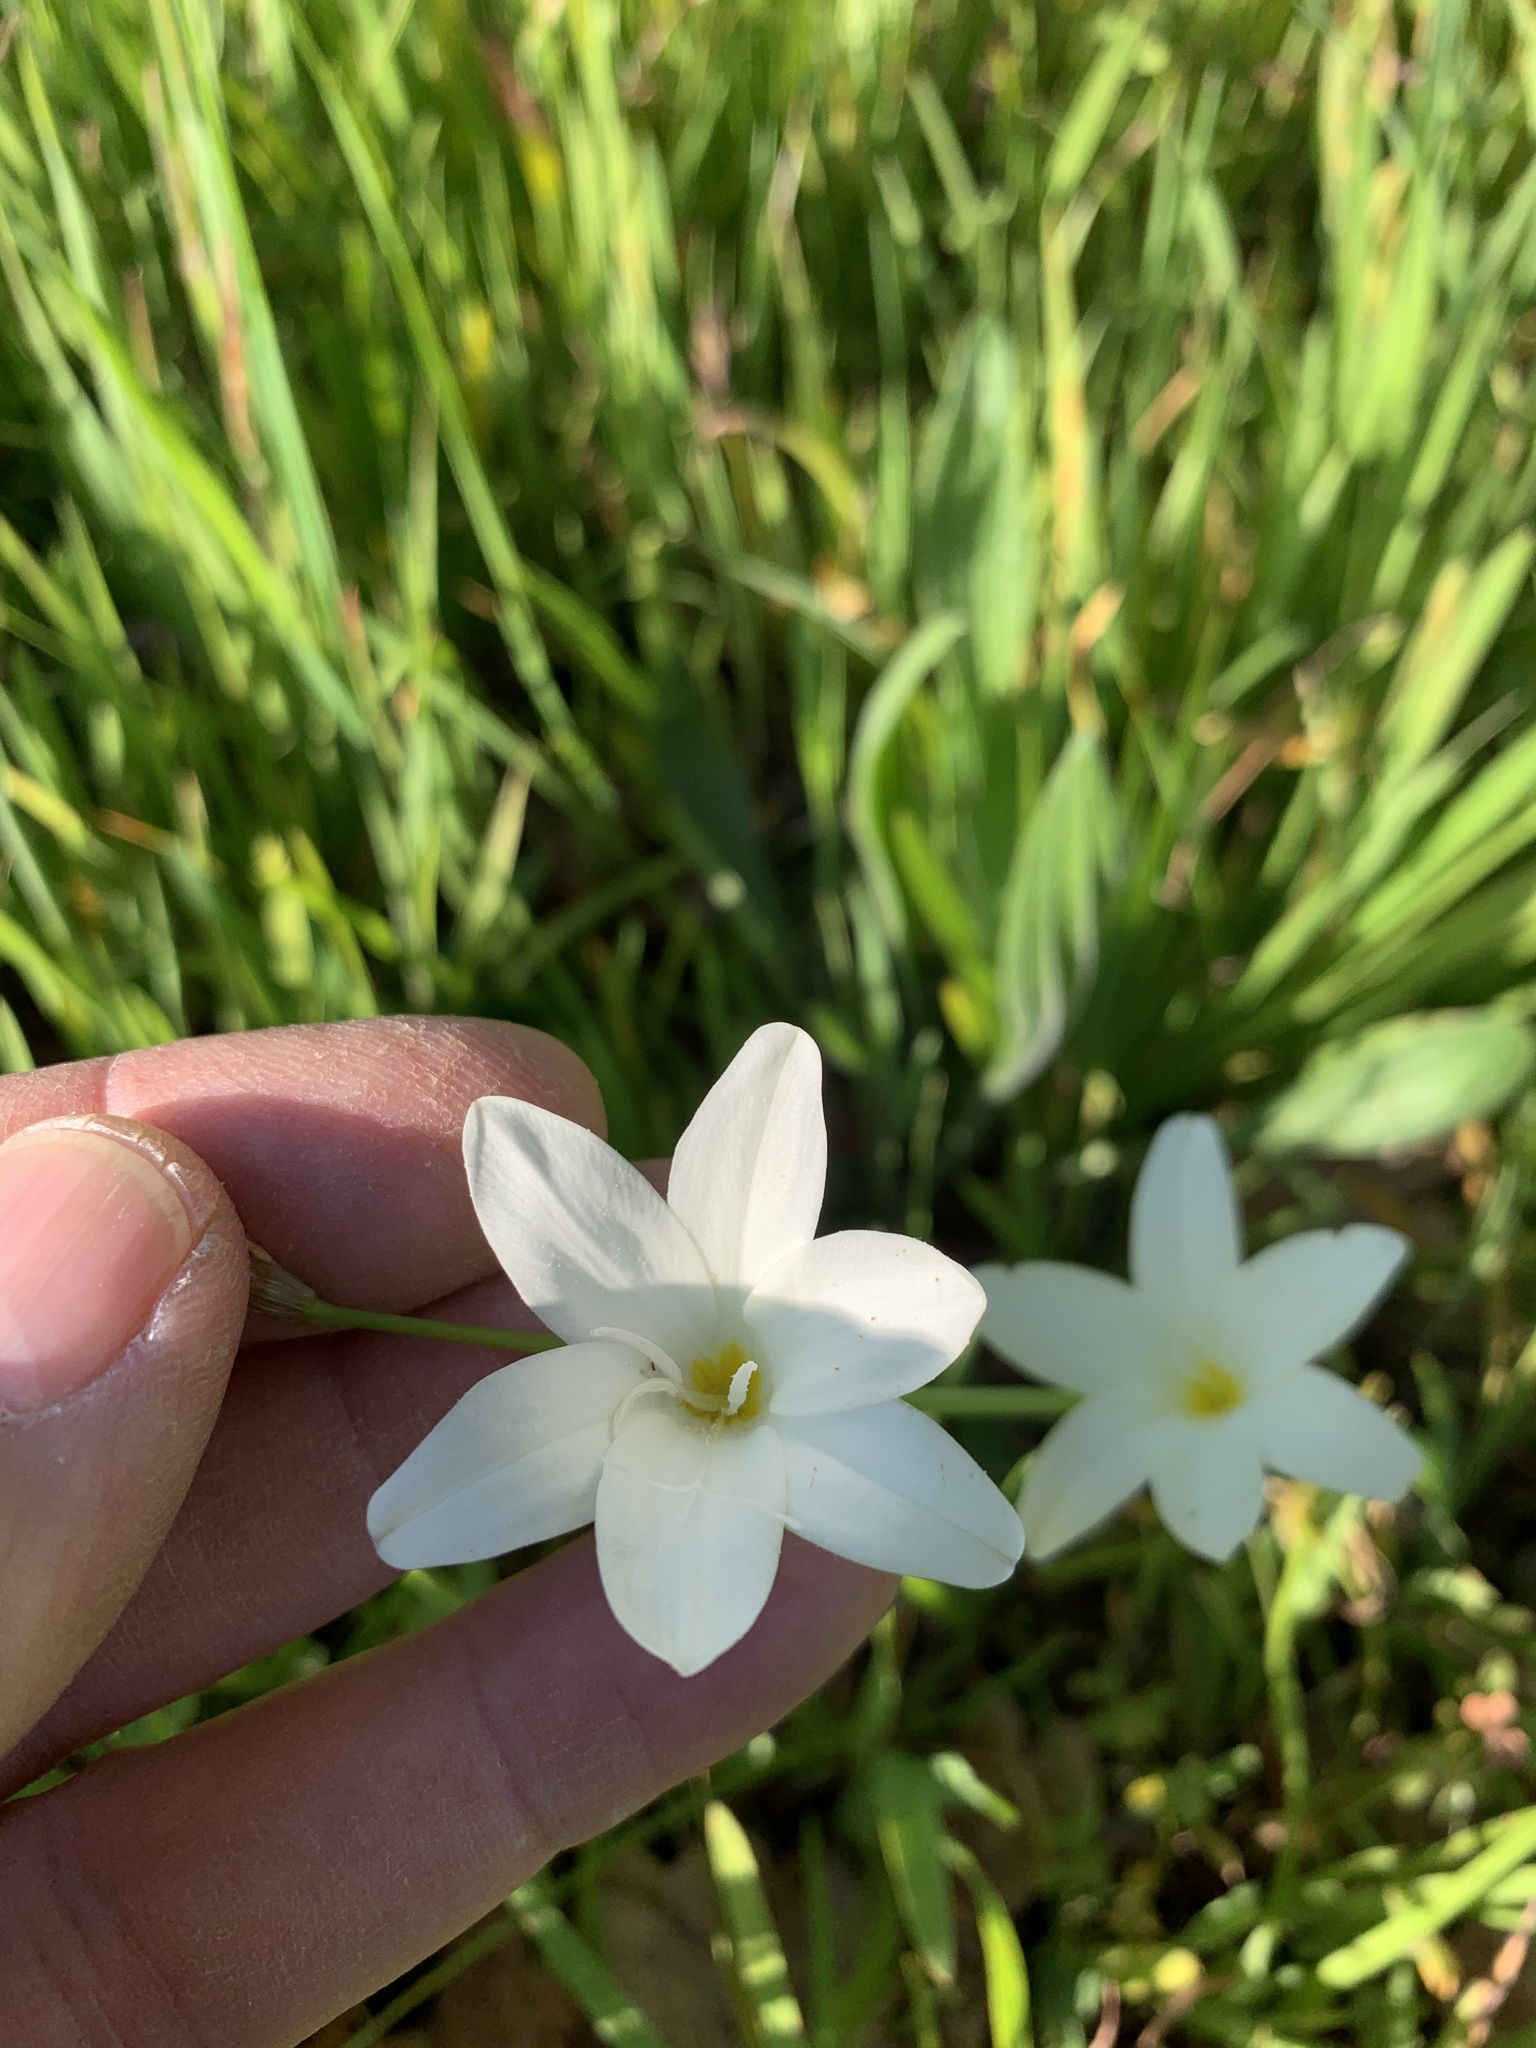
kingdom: Plantae
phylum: Tracheophyta
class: Liliopsida
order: Asparagales
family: Iridaceae
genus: Sparaxis
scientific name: Sparaxis bulbifera
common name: Harlequin-flower
